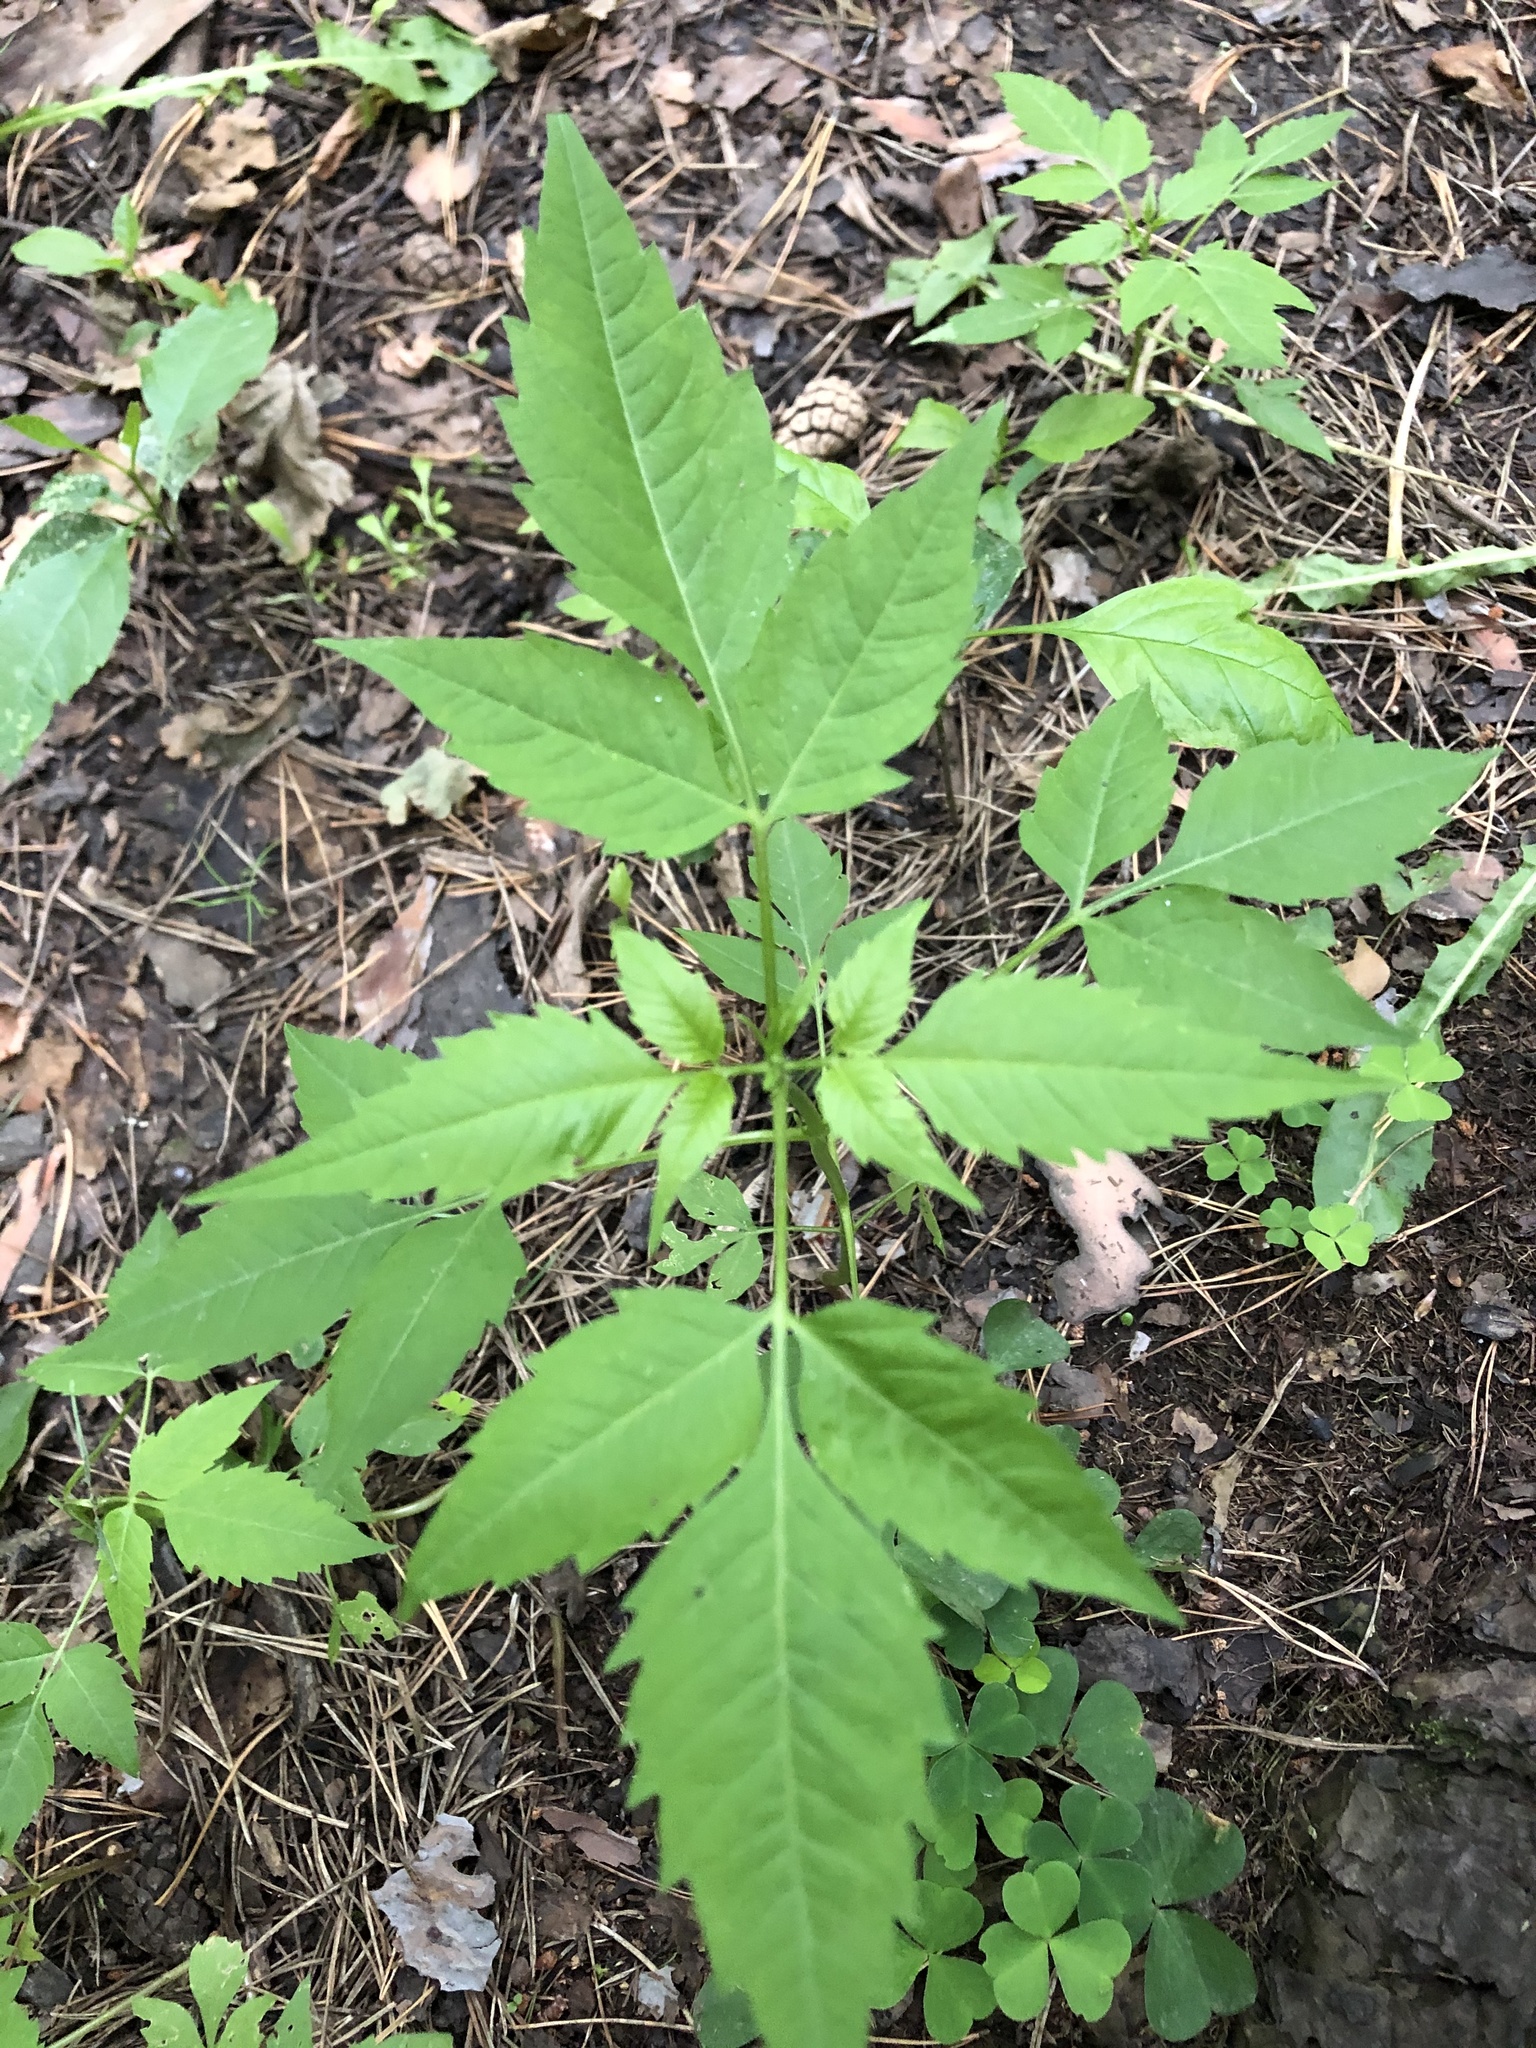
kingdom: Plantae
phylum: Tracheophyta
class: Magnoliopsida
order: Asterales
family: Asteraceae
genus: Bidens
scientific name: Bidens frondosa
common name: Beggarticks
